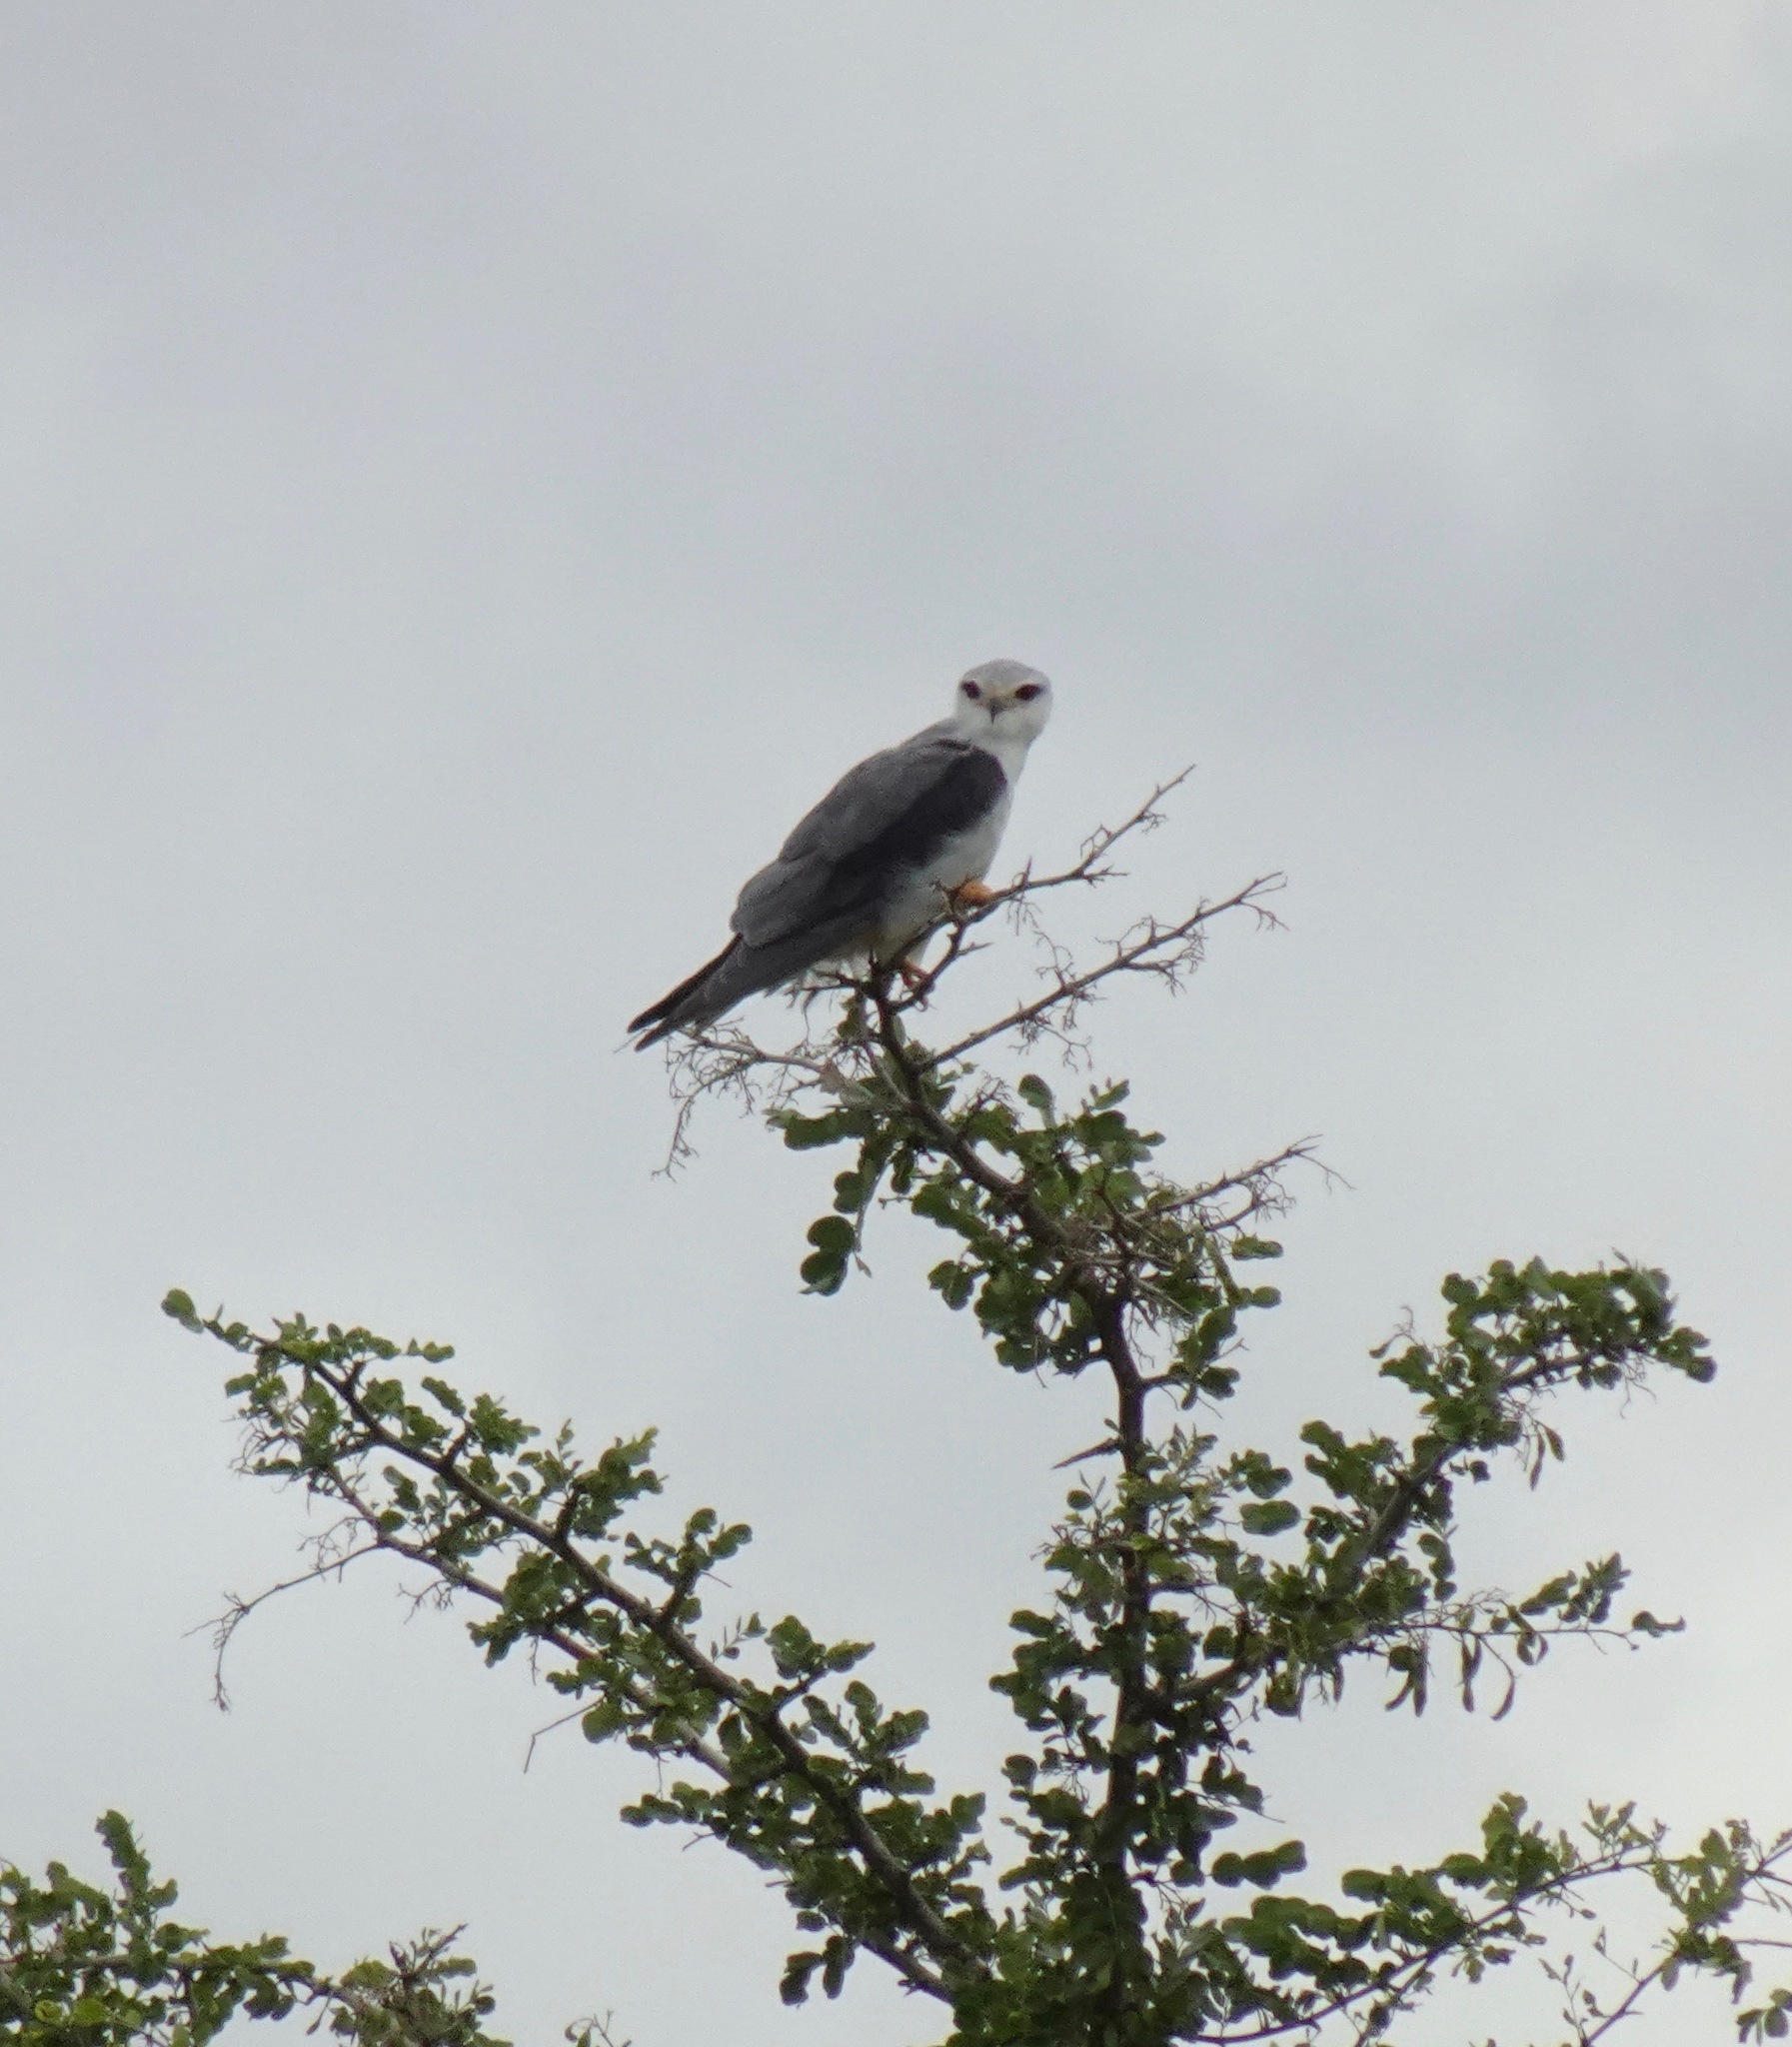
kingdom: Animalia
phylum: Chordata
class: Aves
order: Accipitriformes
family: Accipitridae
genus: Elanus
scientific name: Elanus caeruleus
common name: Black-winged kite
